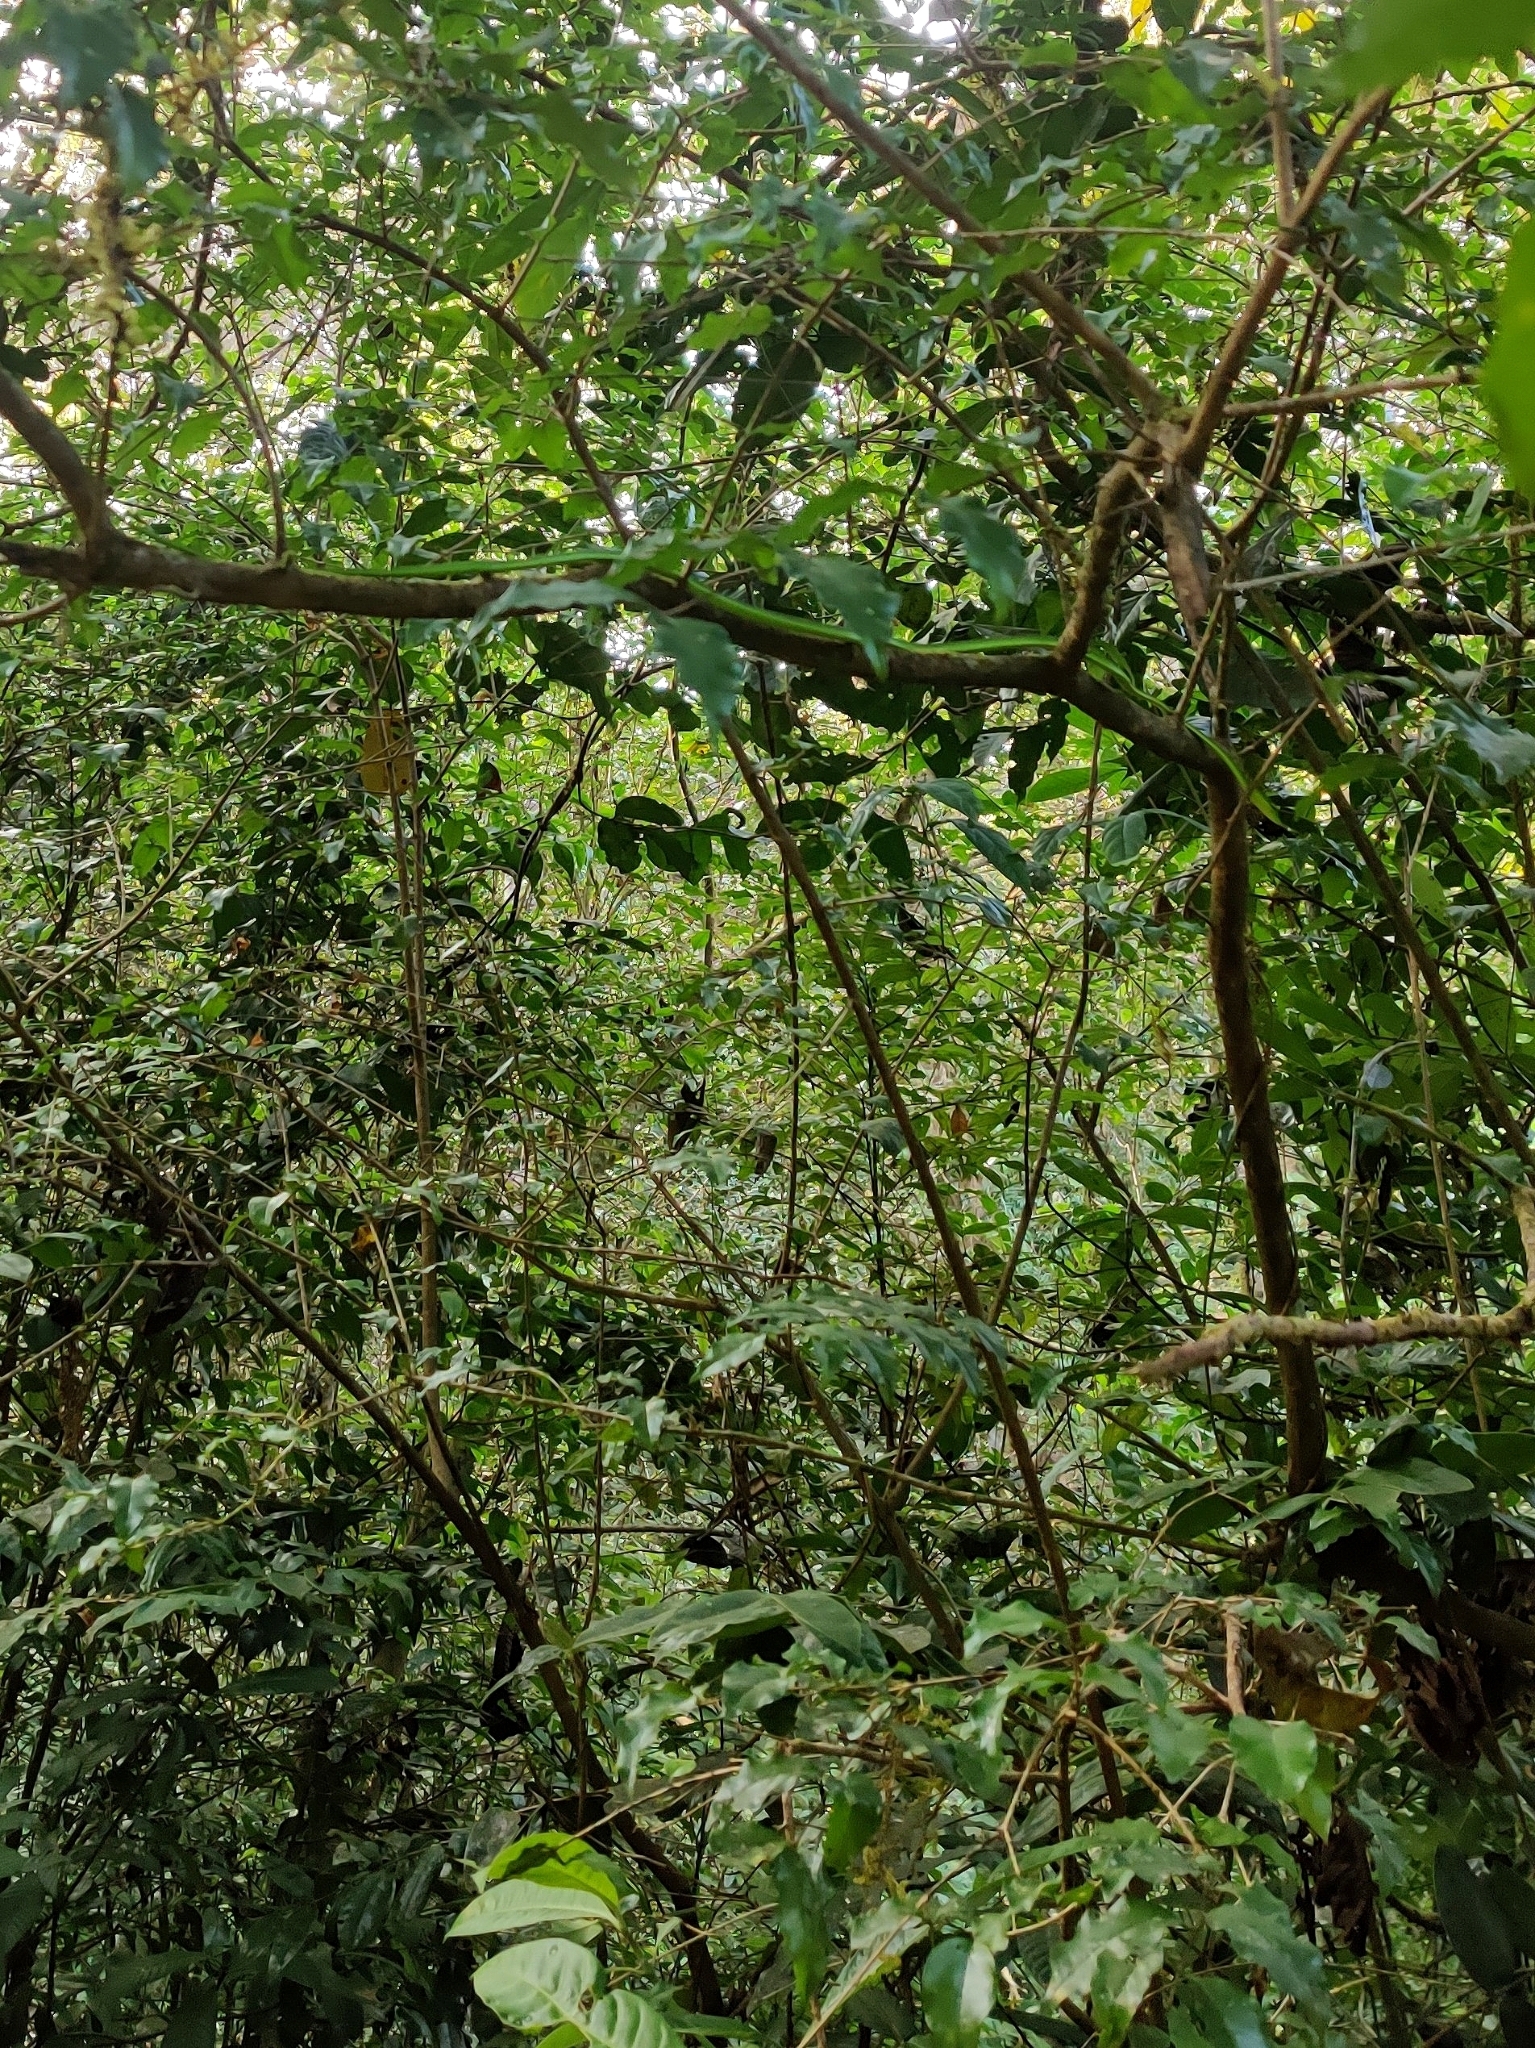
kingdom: Animalia
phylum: Chordata
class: Squamata
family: Colubridae
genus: Ahaetulla
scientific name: Ahaetulla farnsworthi
